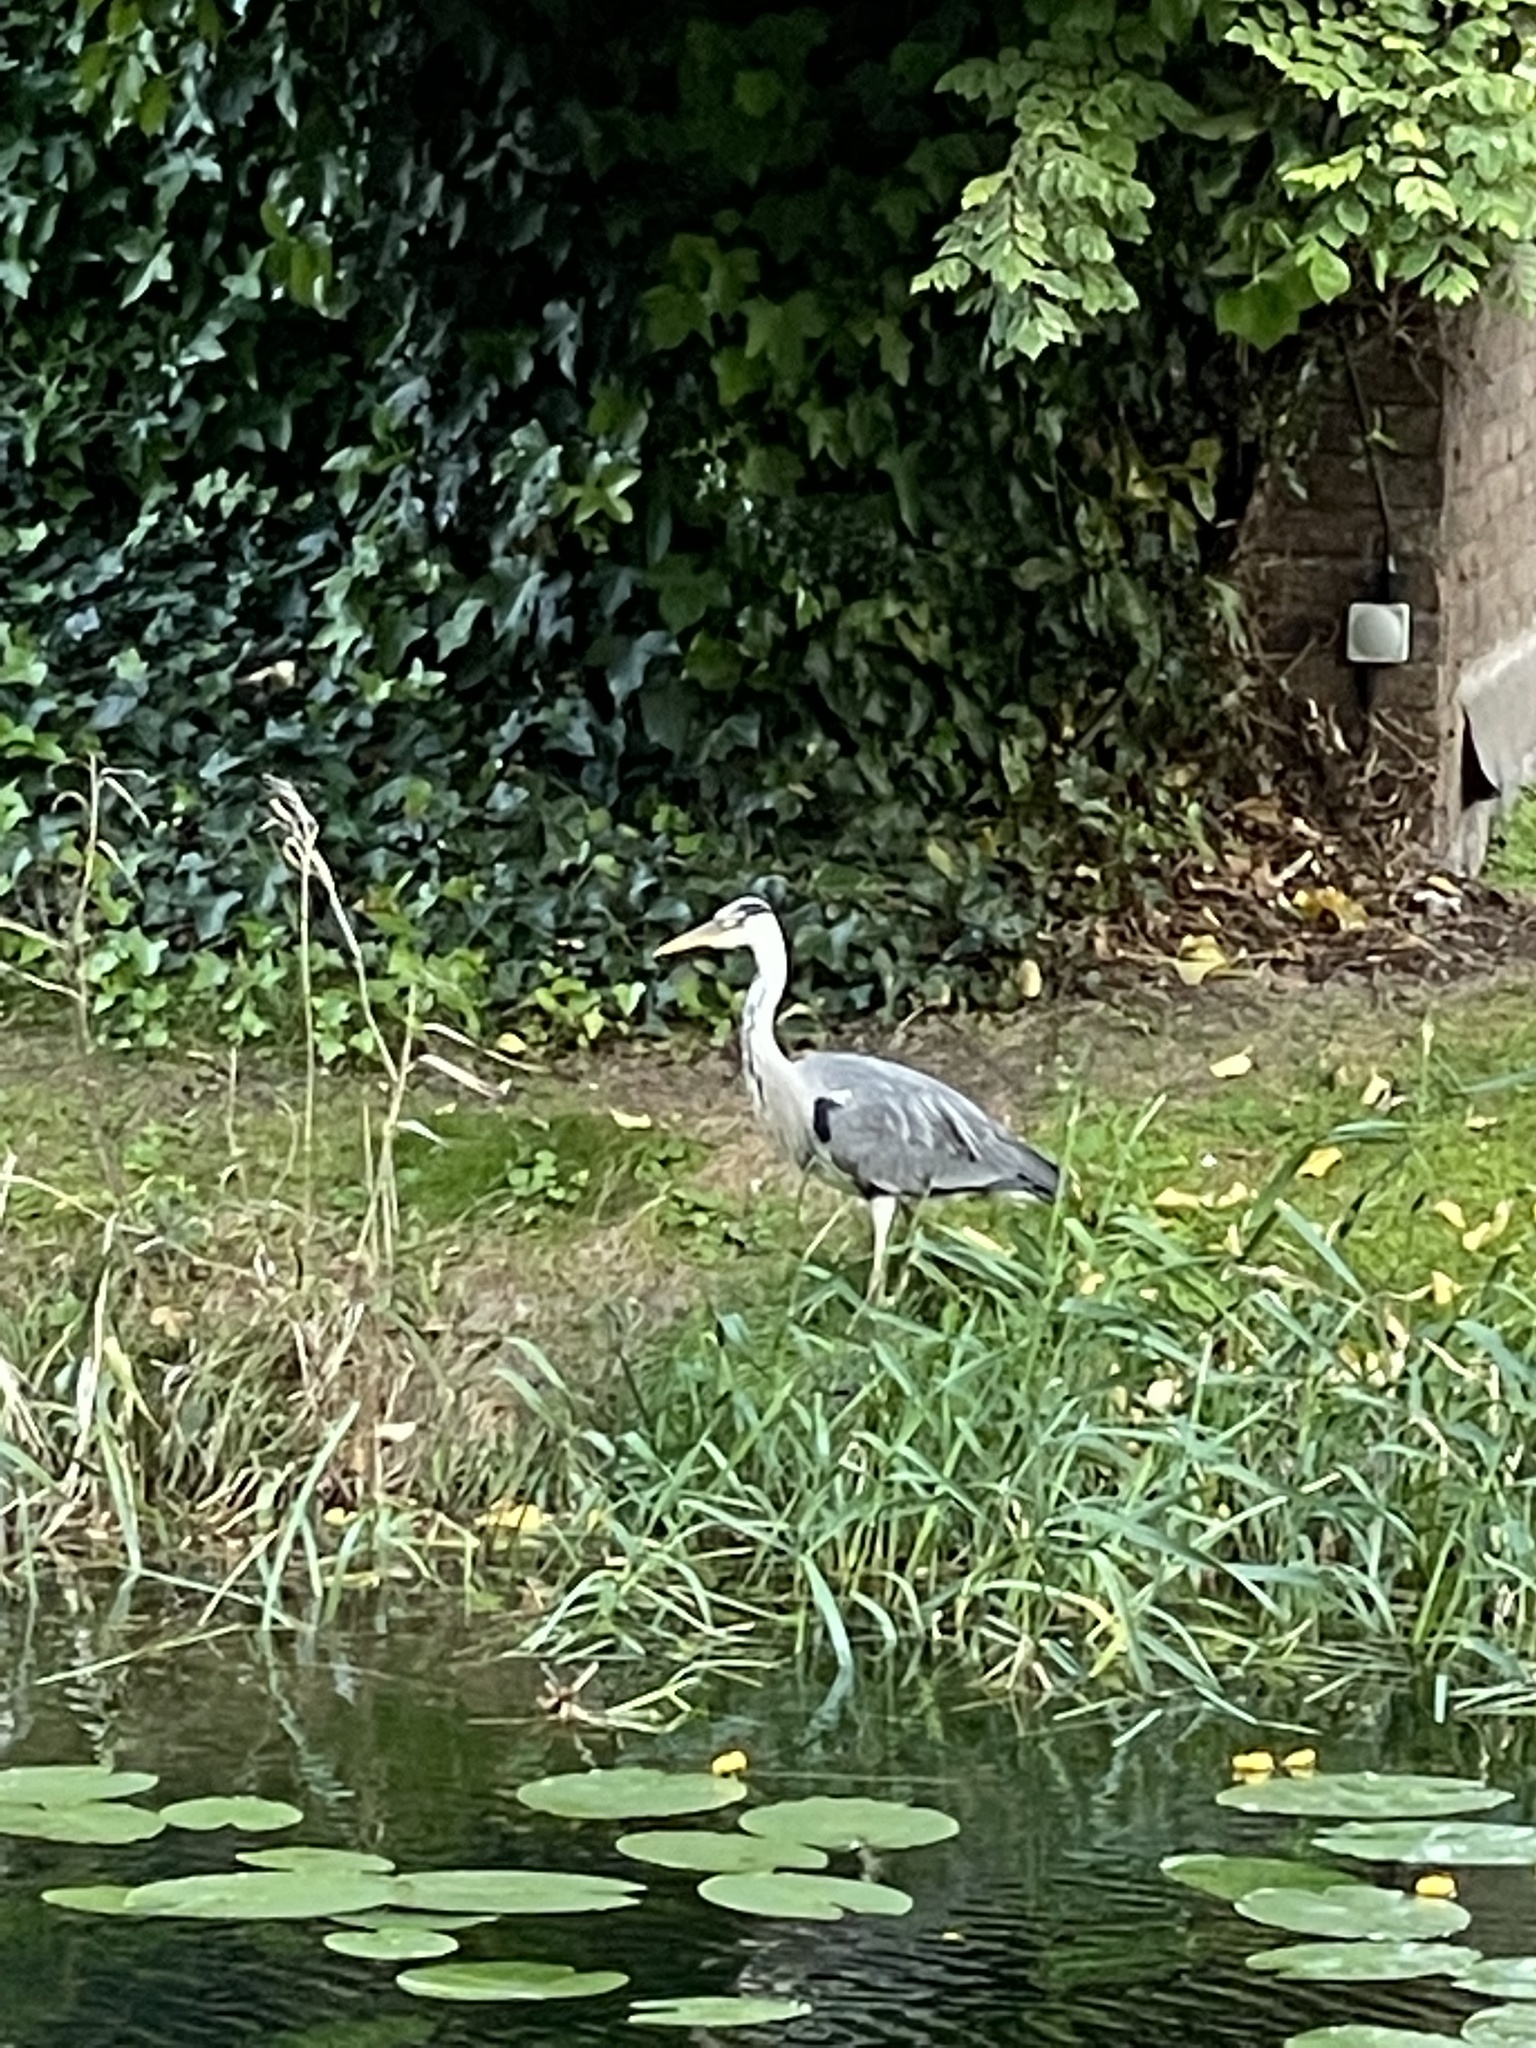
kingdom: Animalia
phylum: Chordata
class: Aves
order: Pelecaniformes
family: Ardeidae
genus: Ardea
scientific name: Ardea cinerea
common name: Grey heron
